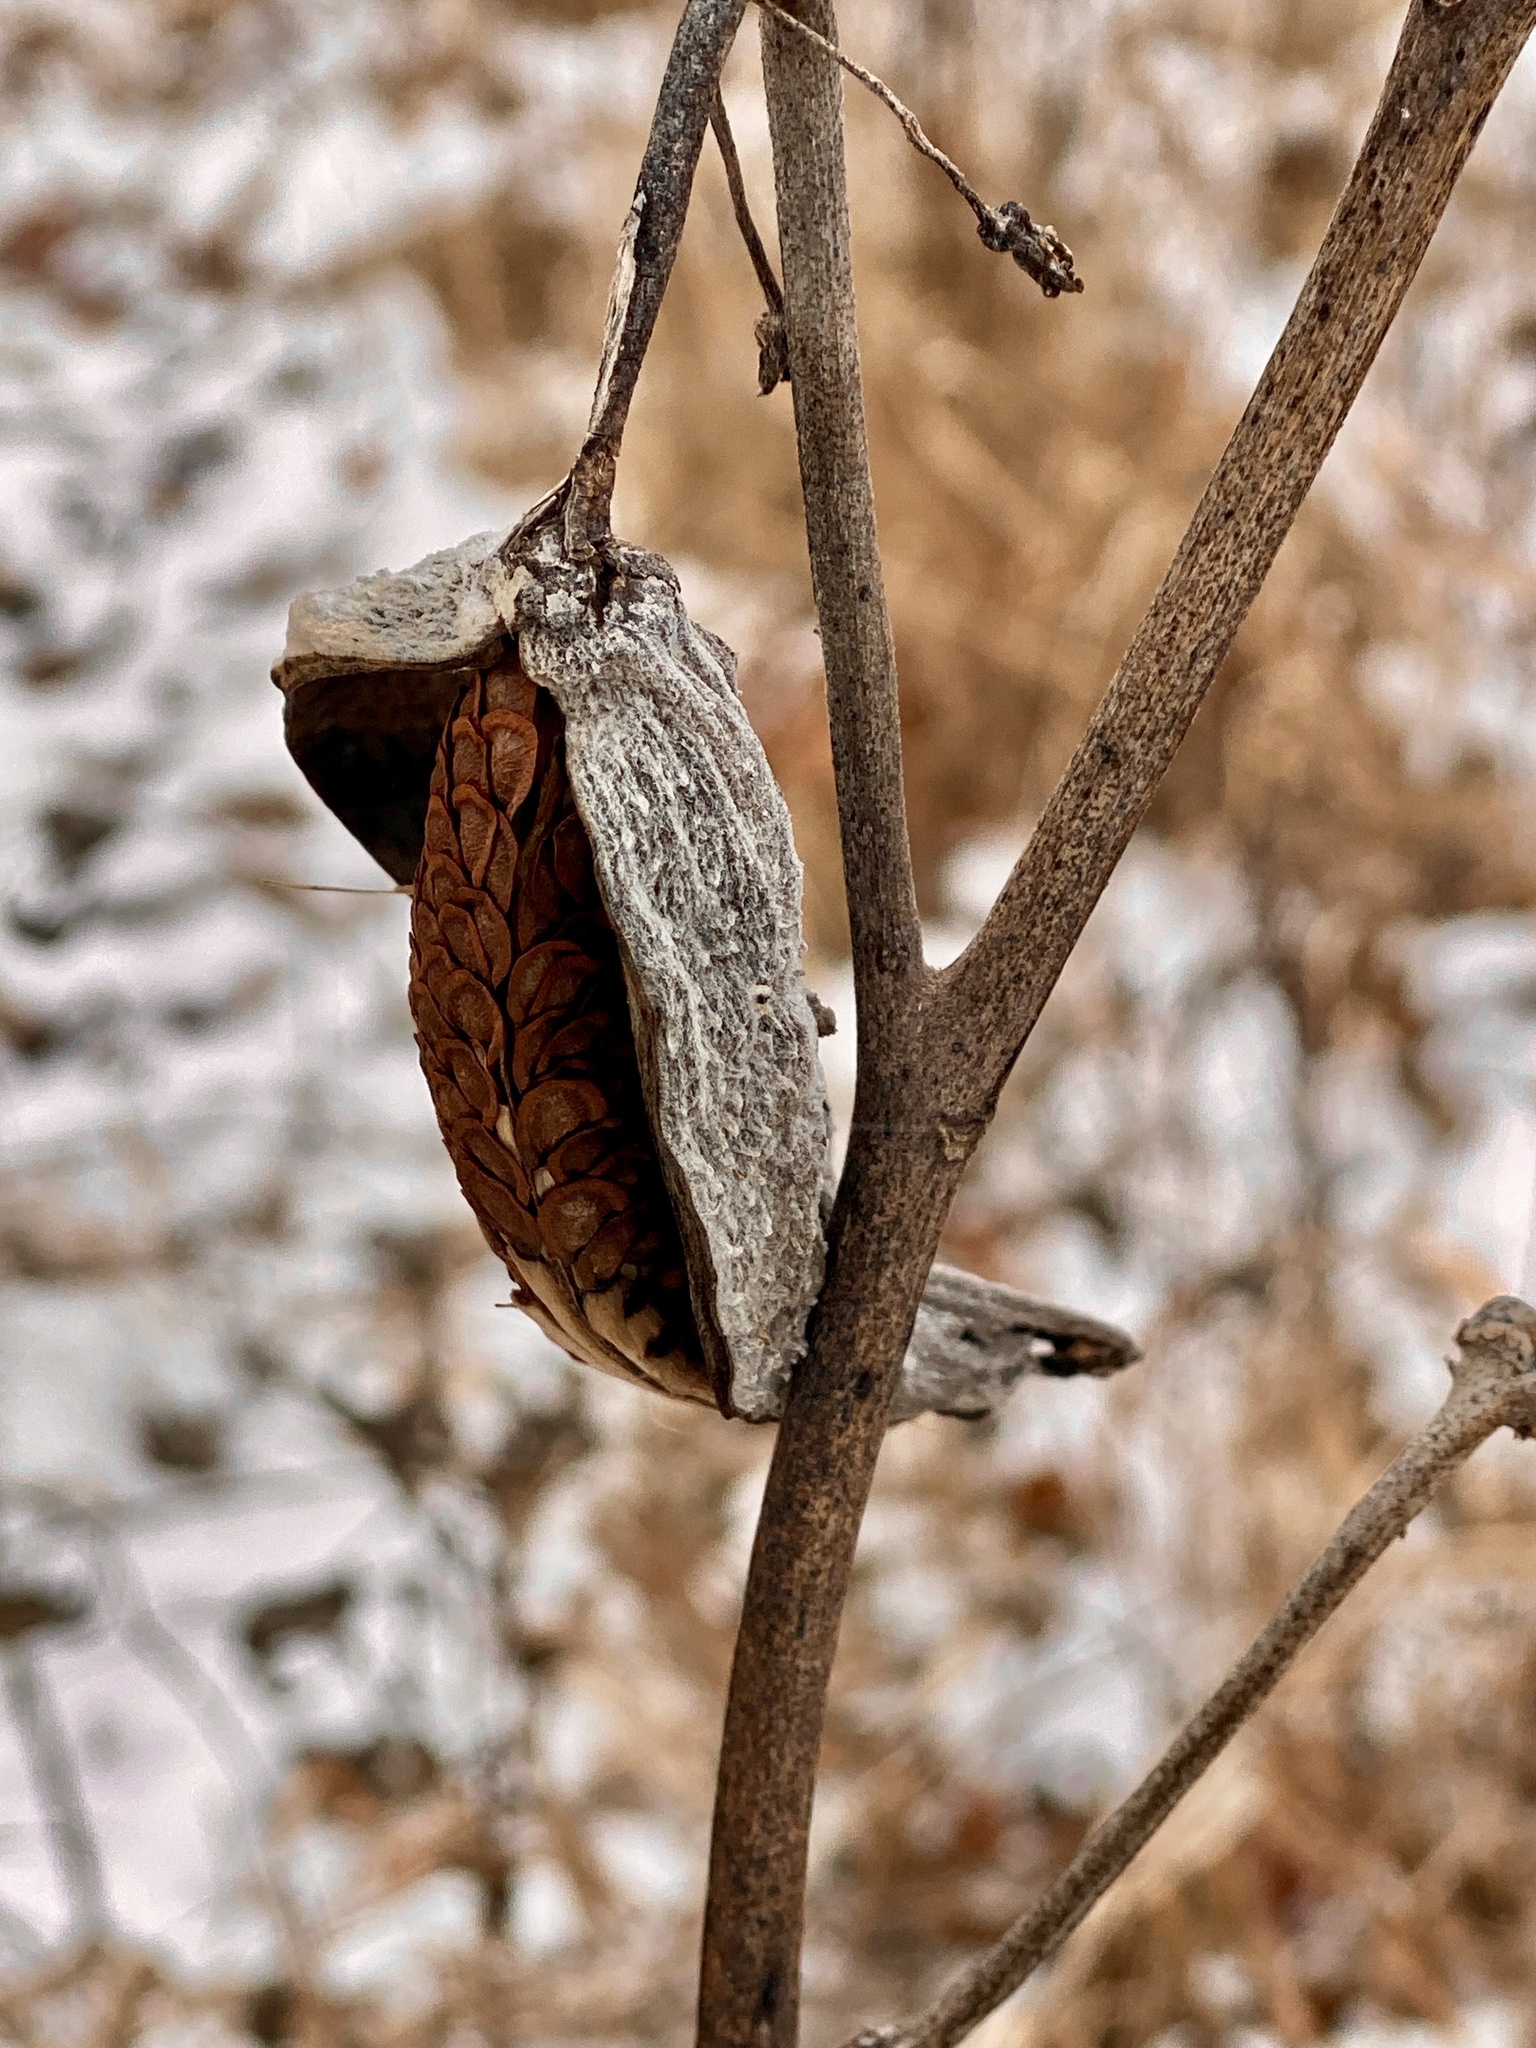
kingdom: Plantae
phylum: Tracheophyta
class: Magnoliopsida
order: Gentianales
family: Apocynaceae
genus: Asclepias
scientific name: Asclepias syriaca
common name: Common milkweed
